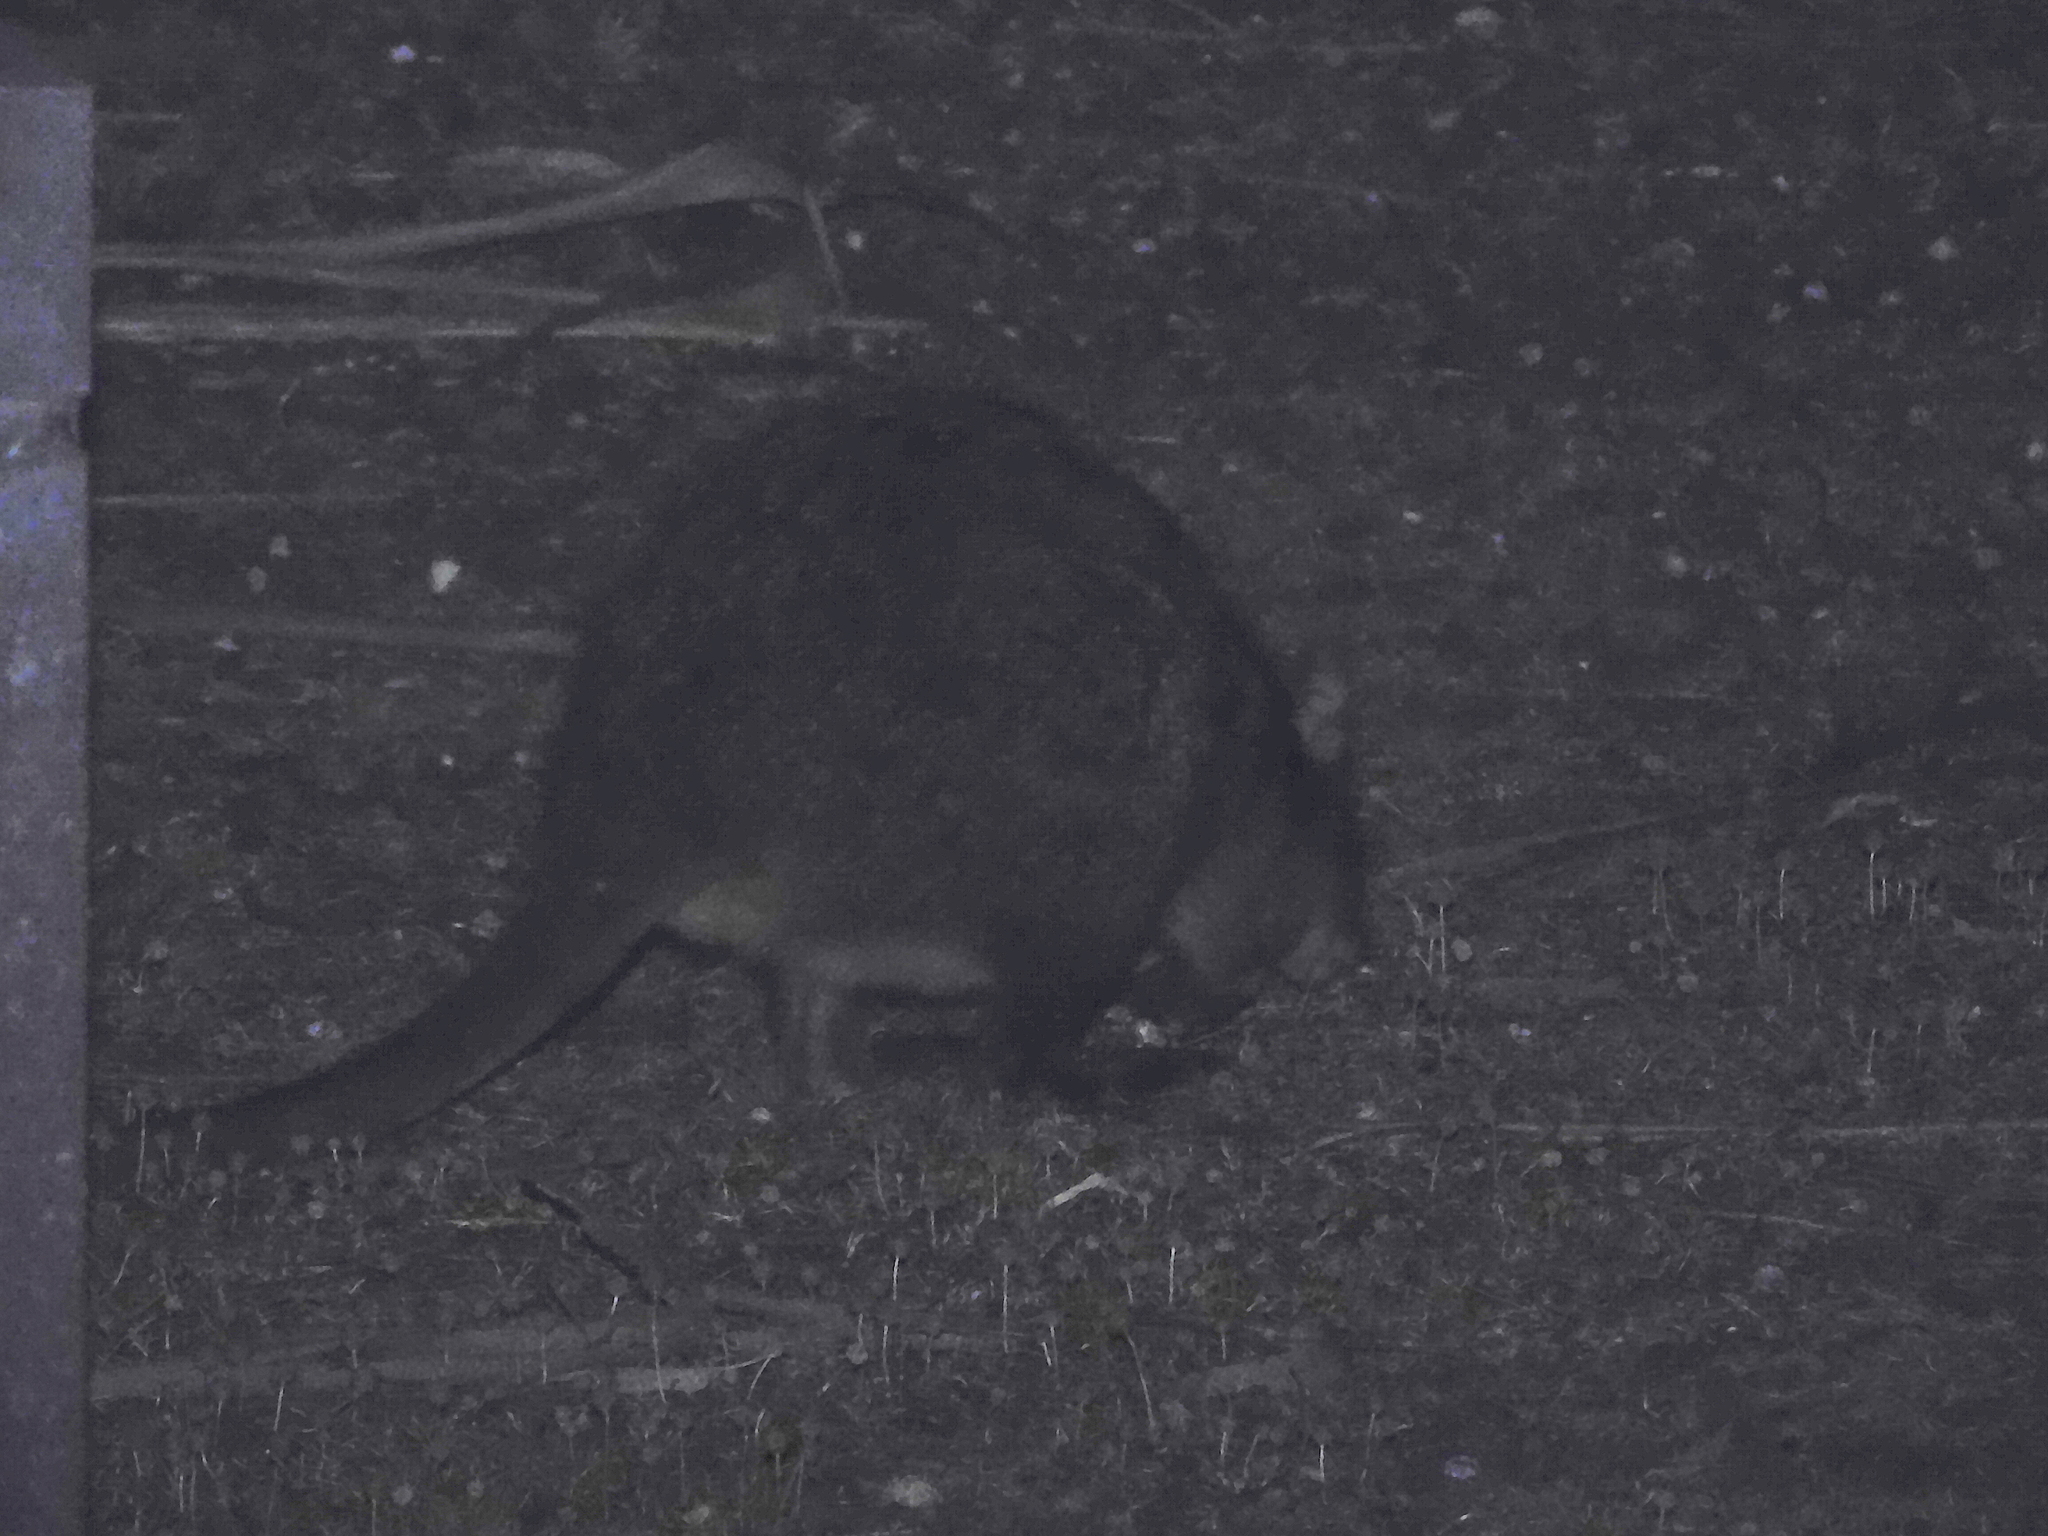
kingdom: Animalia
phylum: Chordata
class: Mammalia
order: Diprotodontia
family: Macropodidae
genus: Thylogale
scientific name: Thylogale billardierii
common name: Tasmanian pademelon
